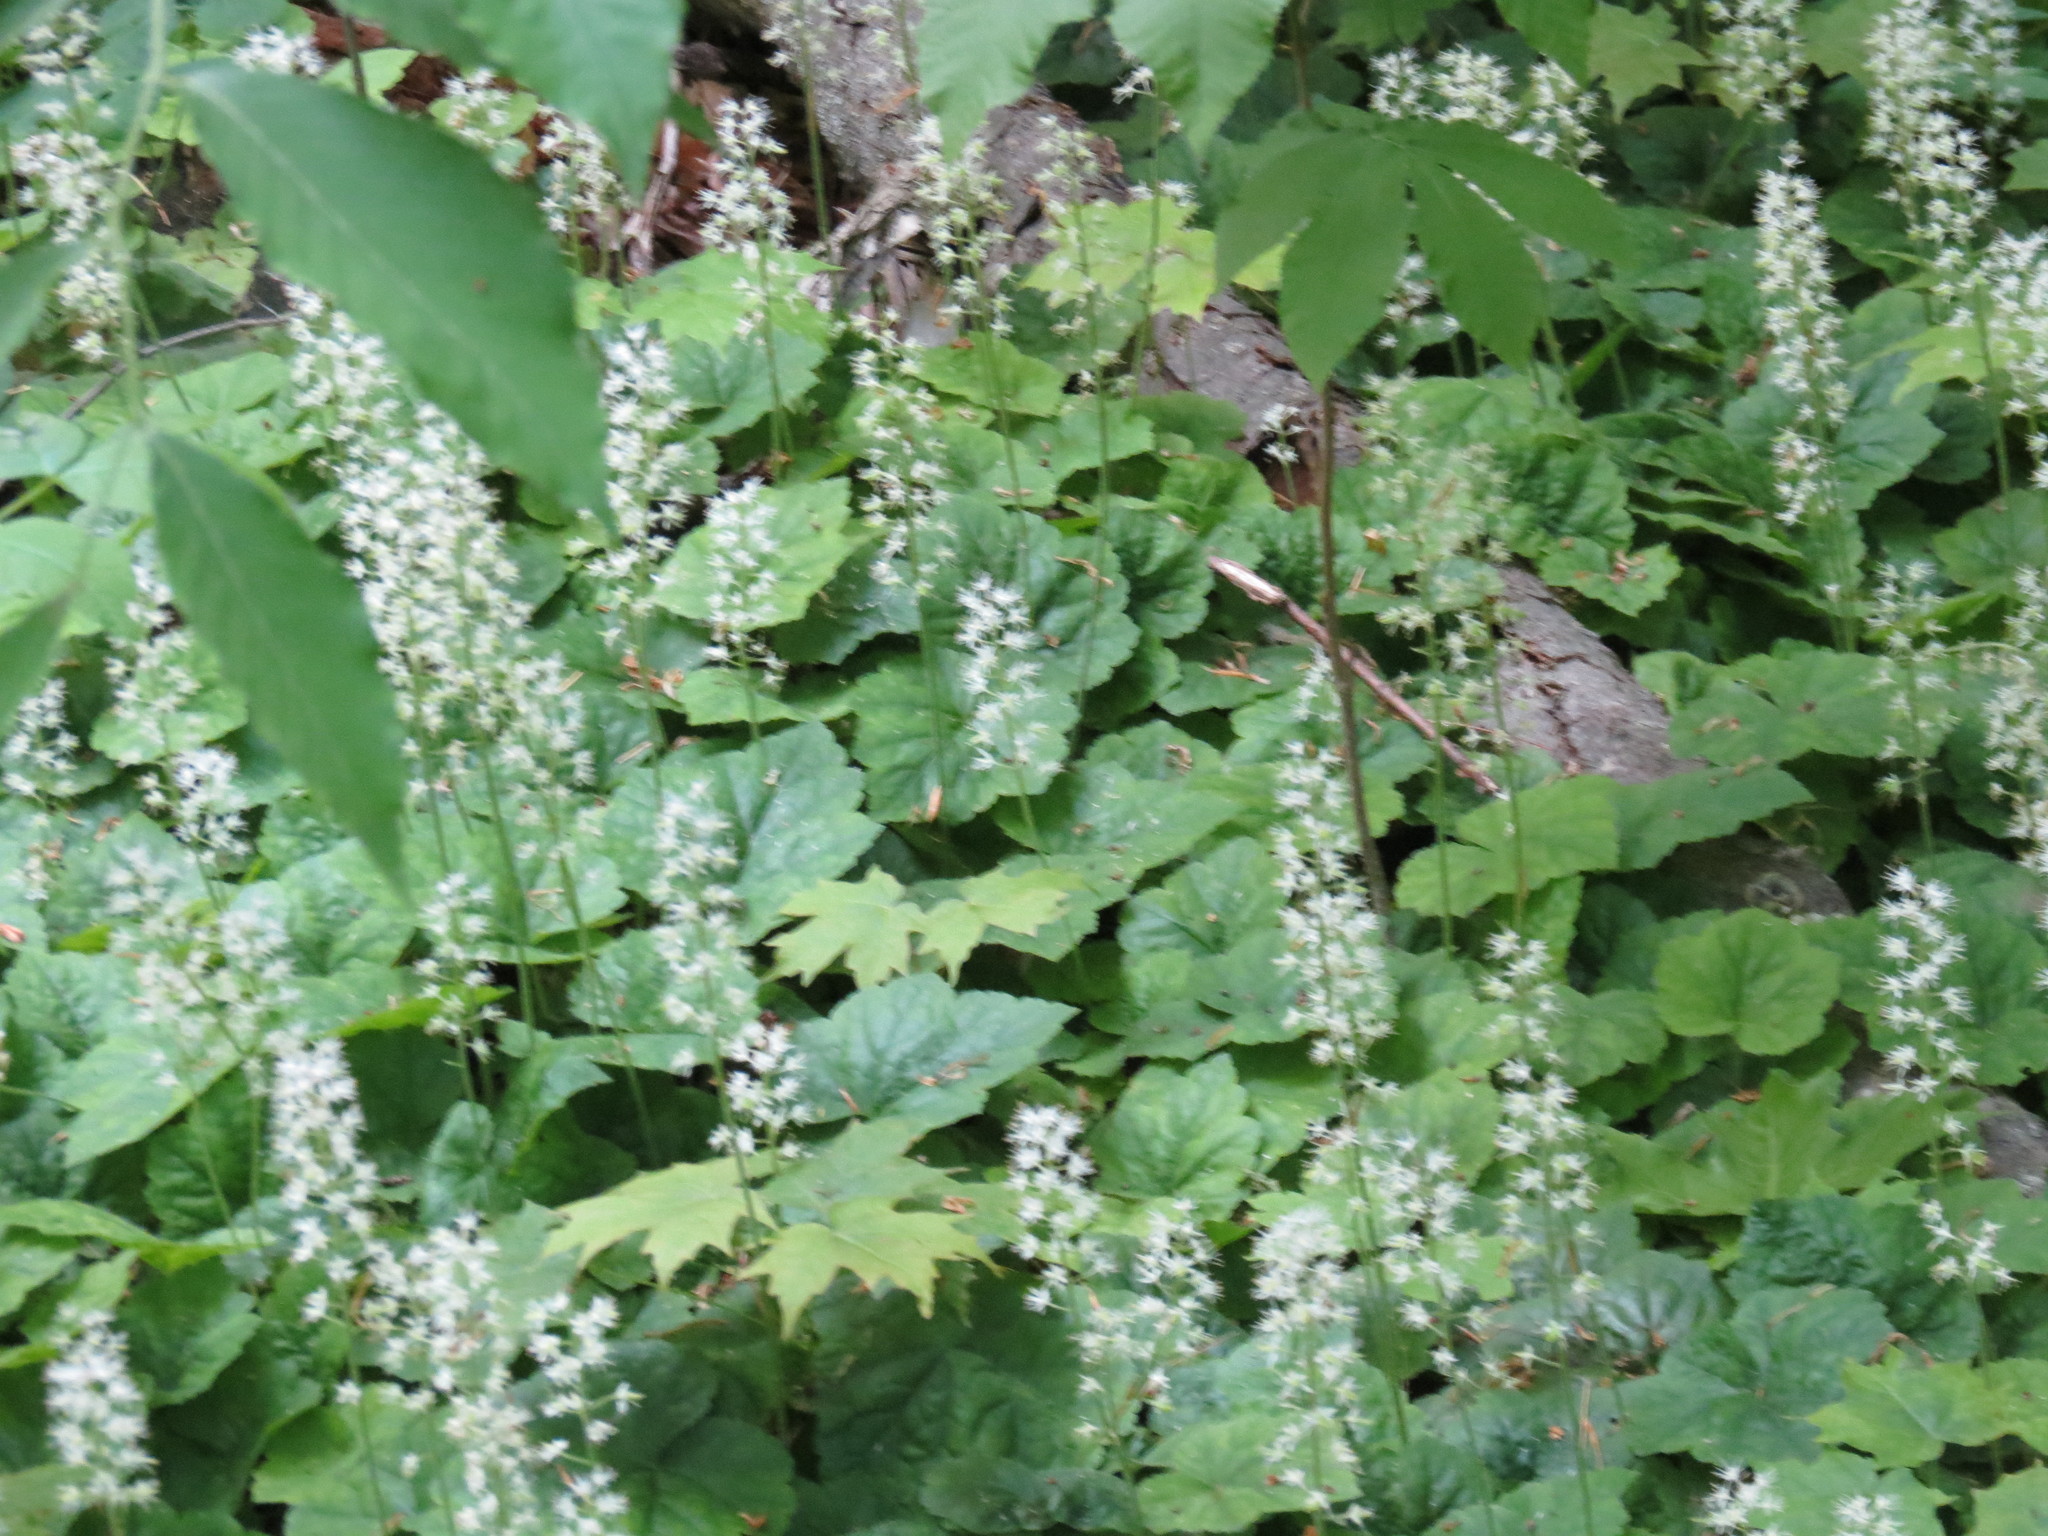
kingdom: Plantae
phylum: Tracheophyta
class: Magnoliopsida
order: Saxifragales
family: Saxifragaceae
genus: Tiarella
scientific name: Tiarella stolonifera
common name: Stoloniferous foamflower
